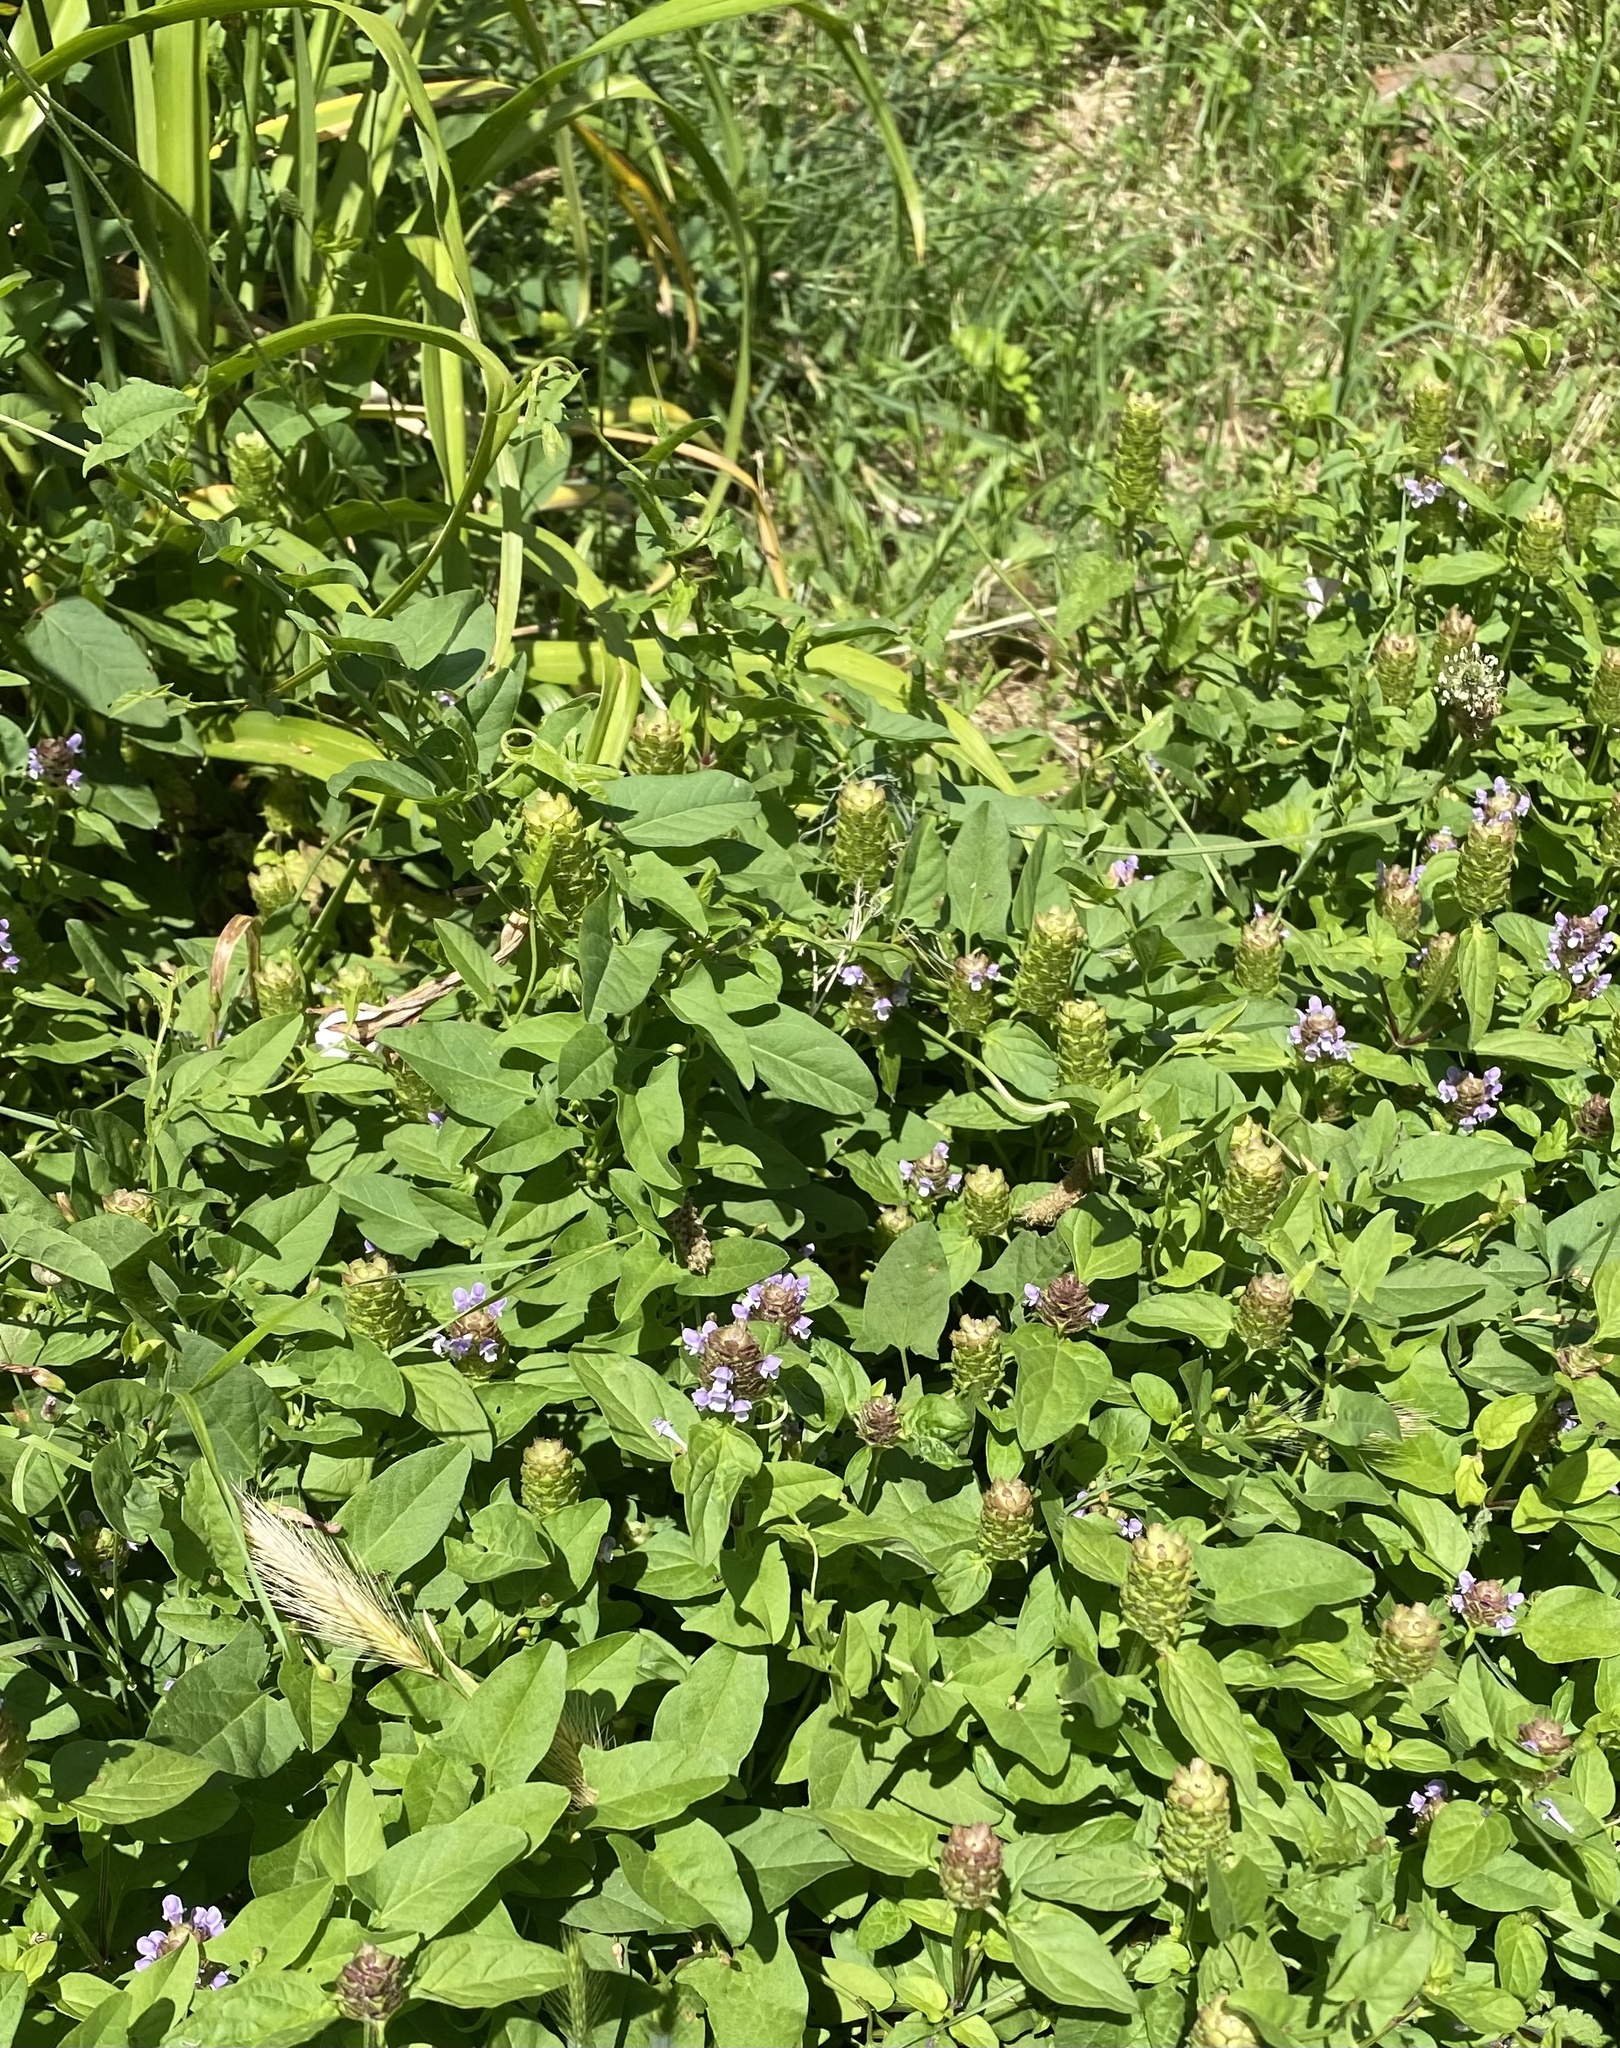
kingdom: Plantae
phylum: Tracheophyta
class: Magnoliopsida
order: Lamiales
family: Lamiaceae
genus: Prunella
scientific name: Prunella vulgaris
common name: Heal-all
